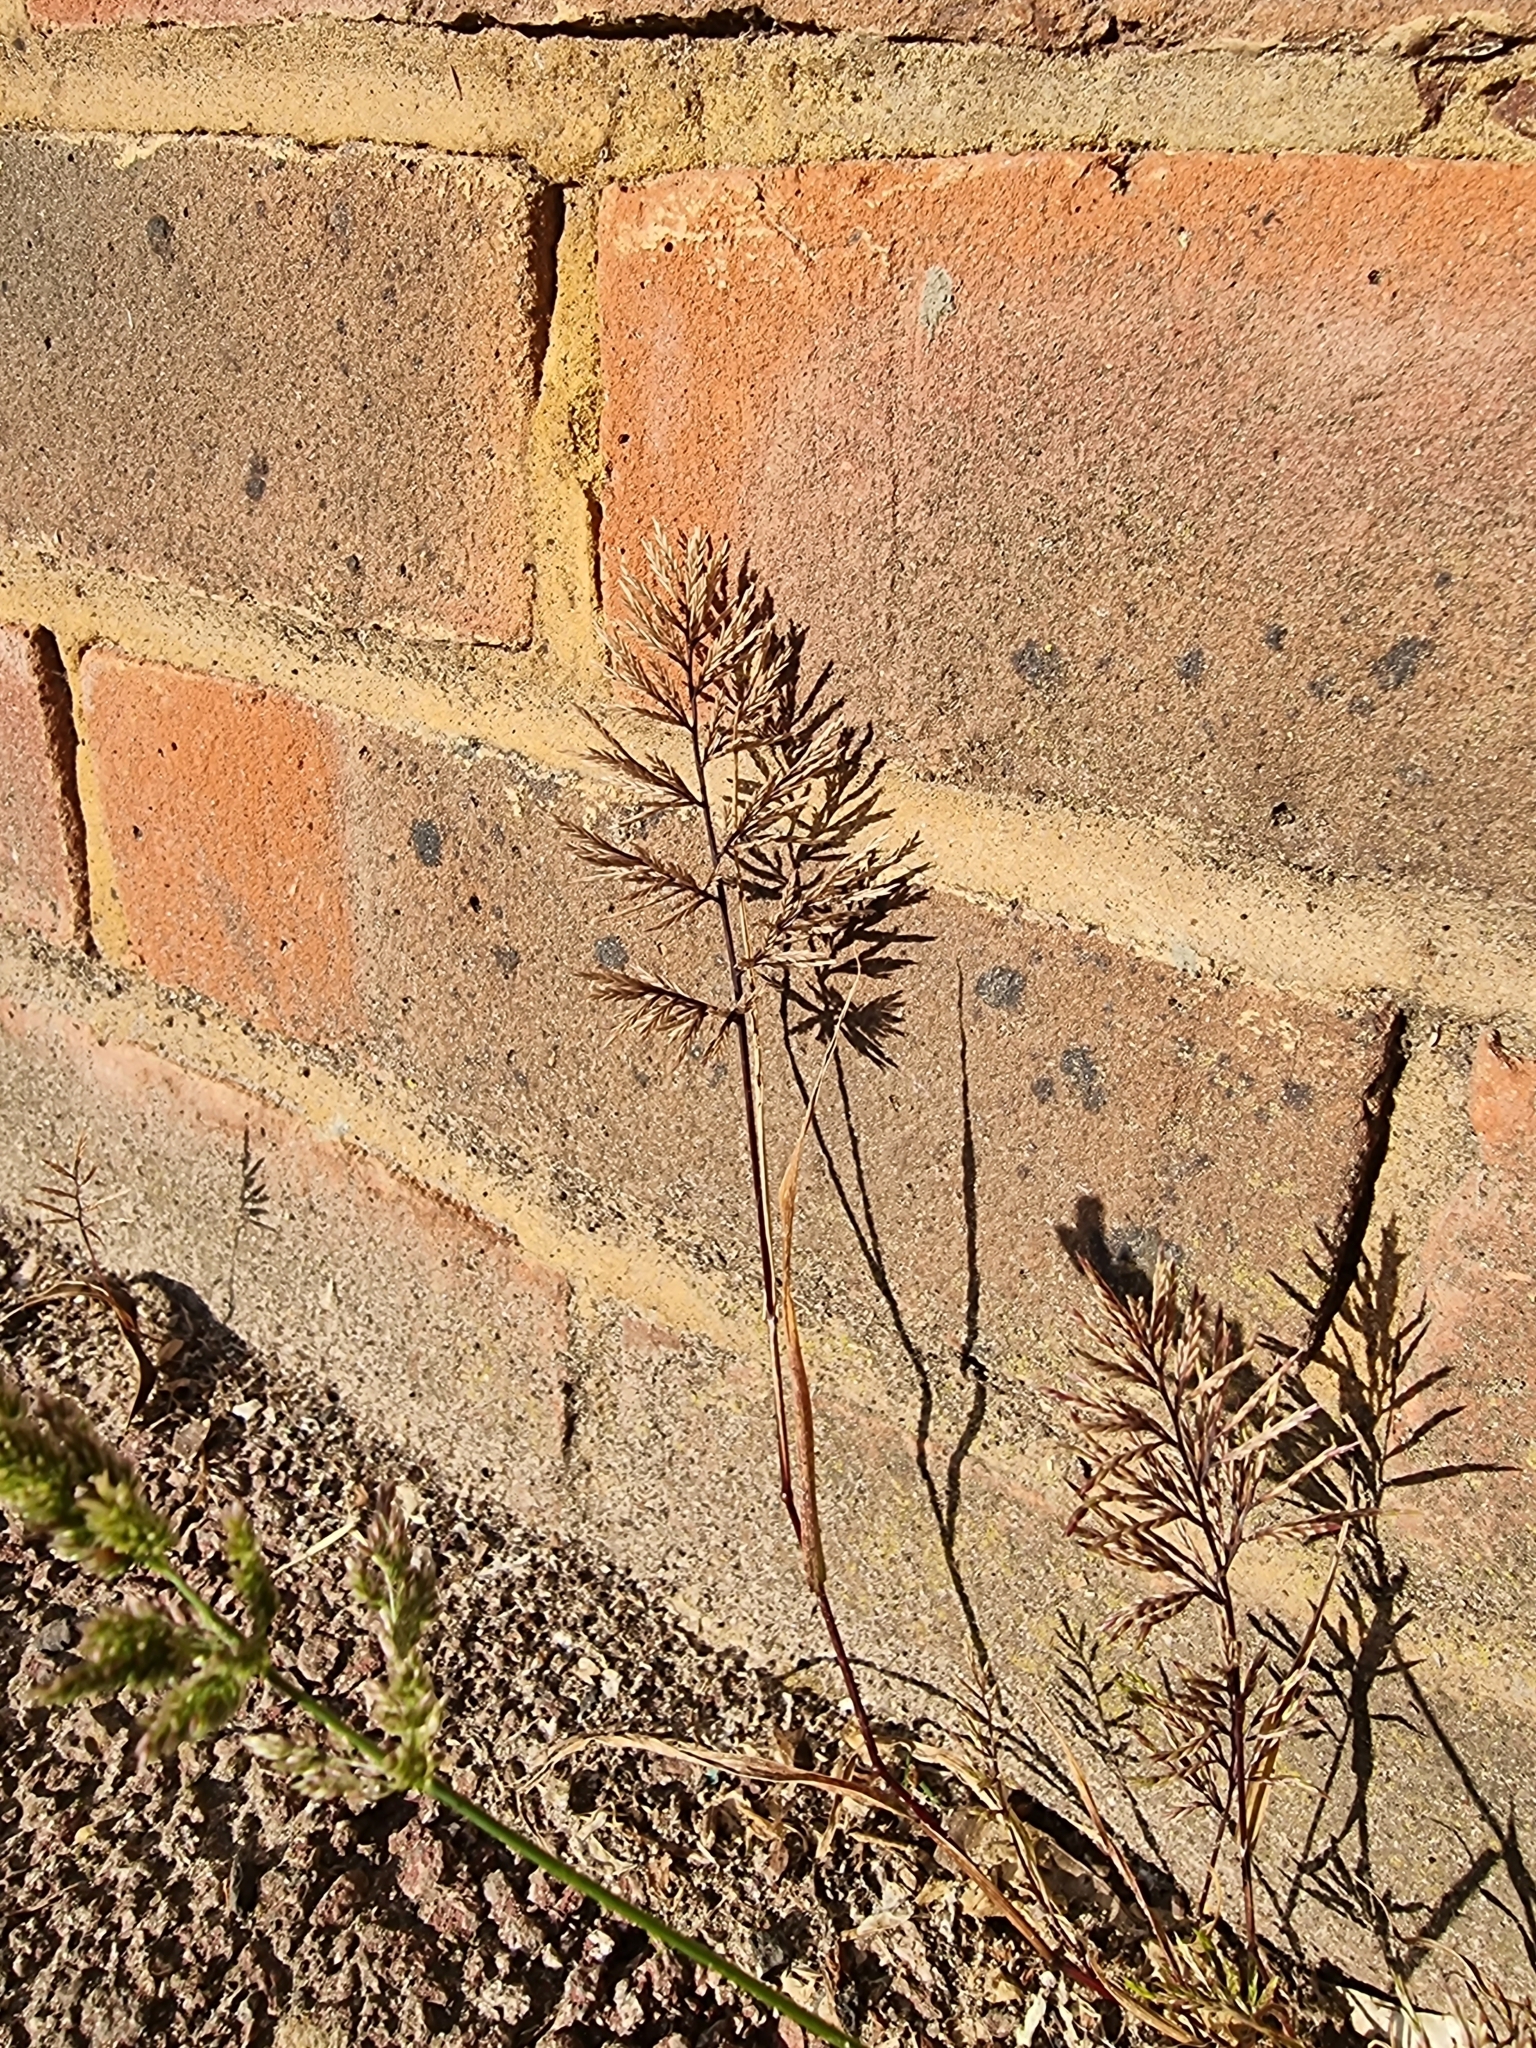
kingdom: Plantae
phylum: Tracheophyta
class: Liliopsida
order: Poales
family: Poaceae
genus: Catapodium
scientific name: Catapodium rigidum
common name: Fern-grass
